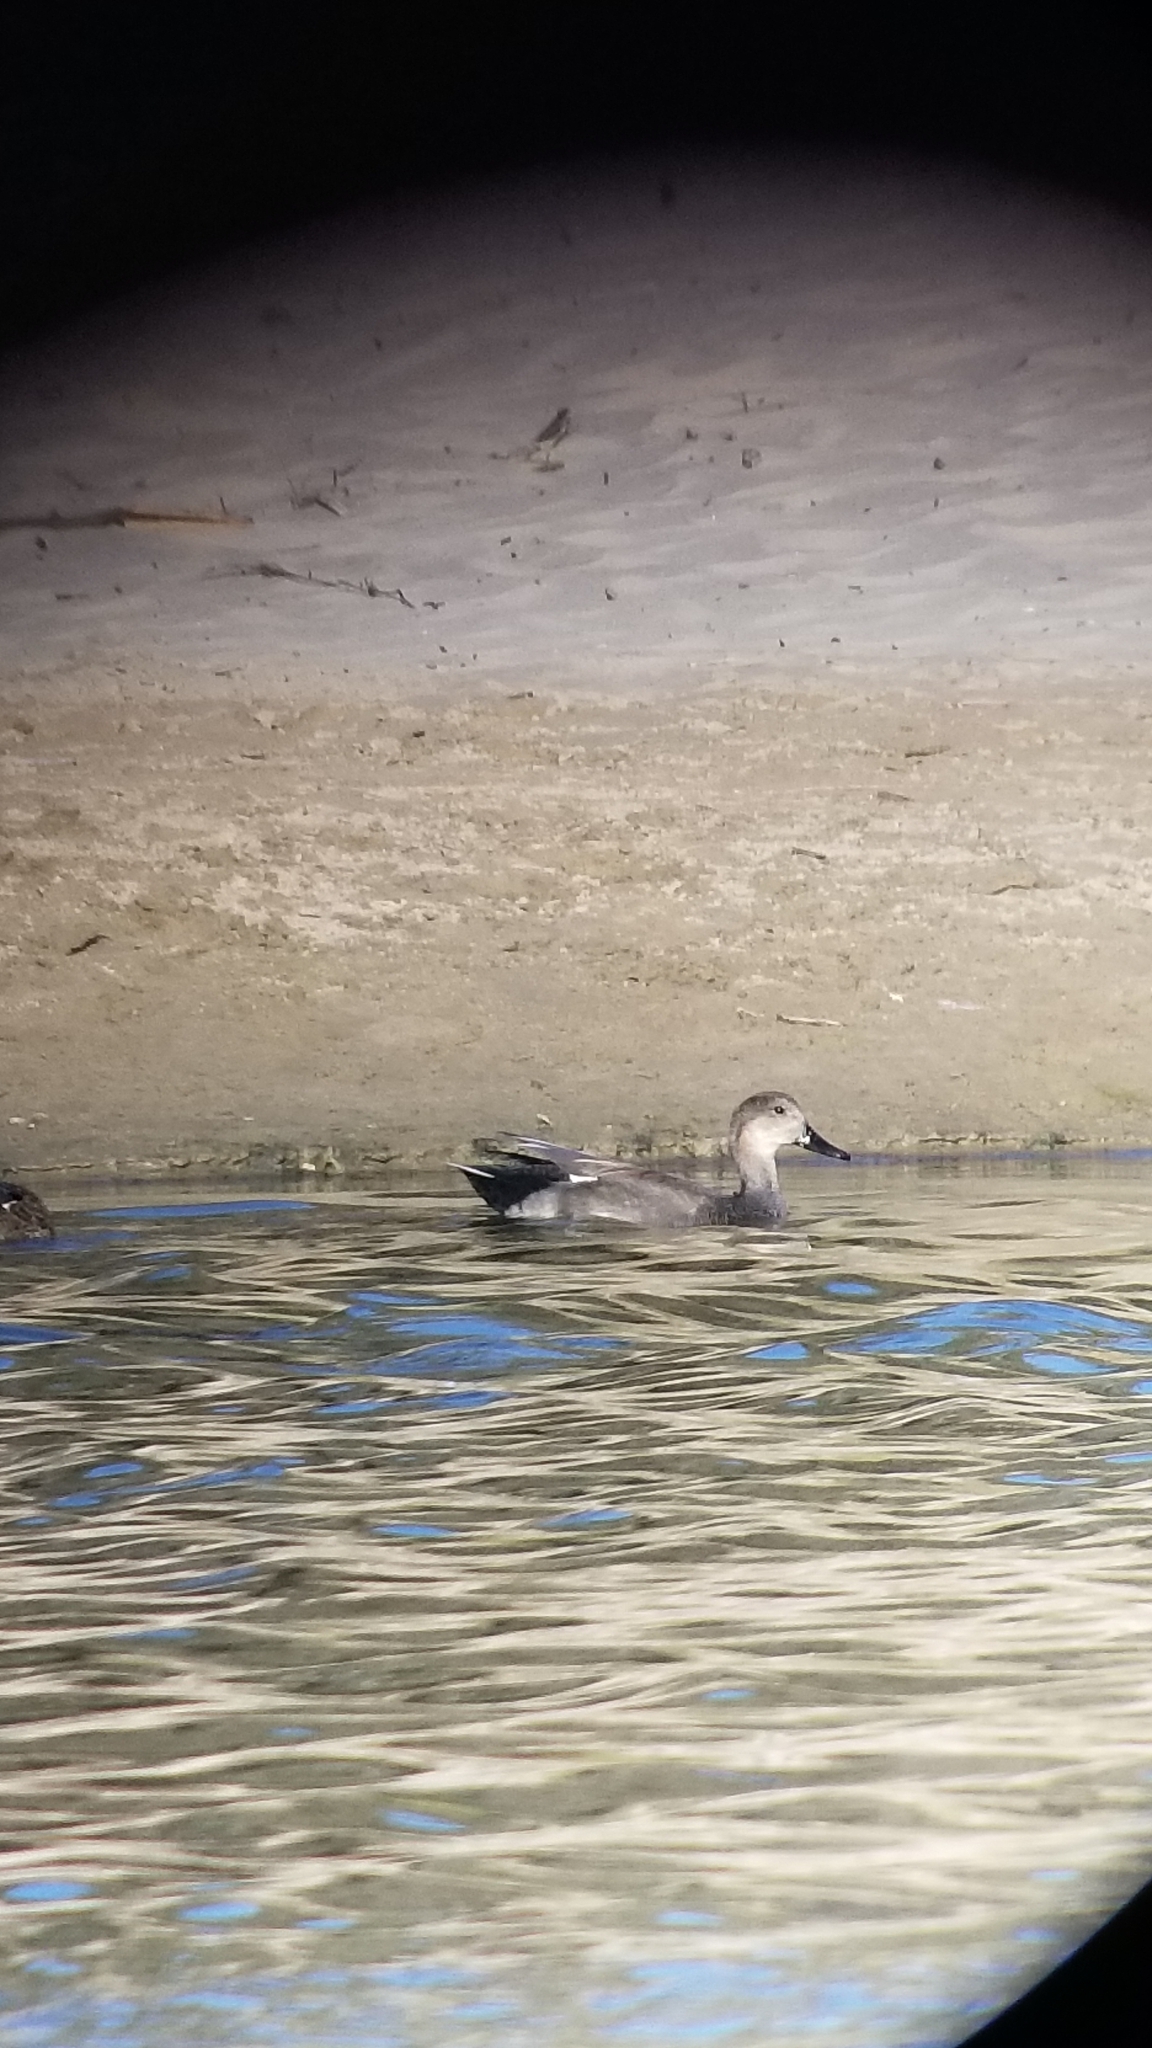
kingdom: Animalia
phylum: Chordata
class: Aves
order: Anseriformes
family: Anatidae
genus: Mareca
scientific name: Mareca strepera
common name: Gadwall
